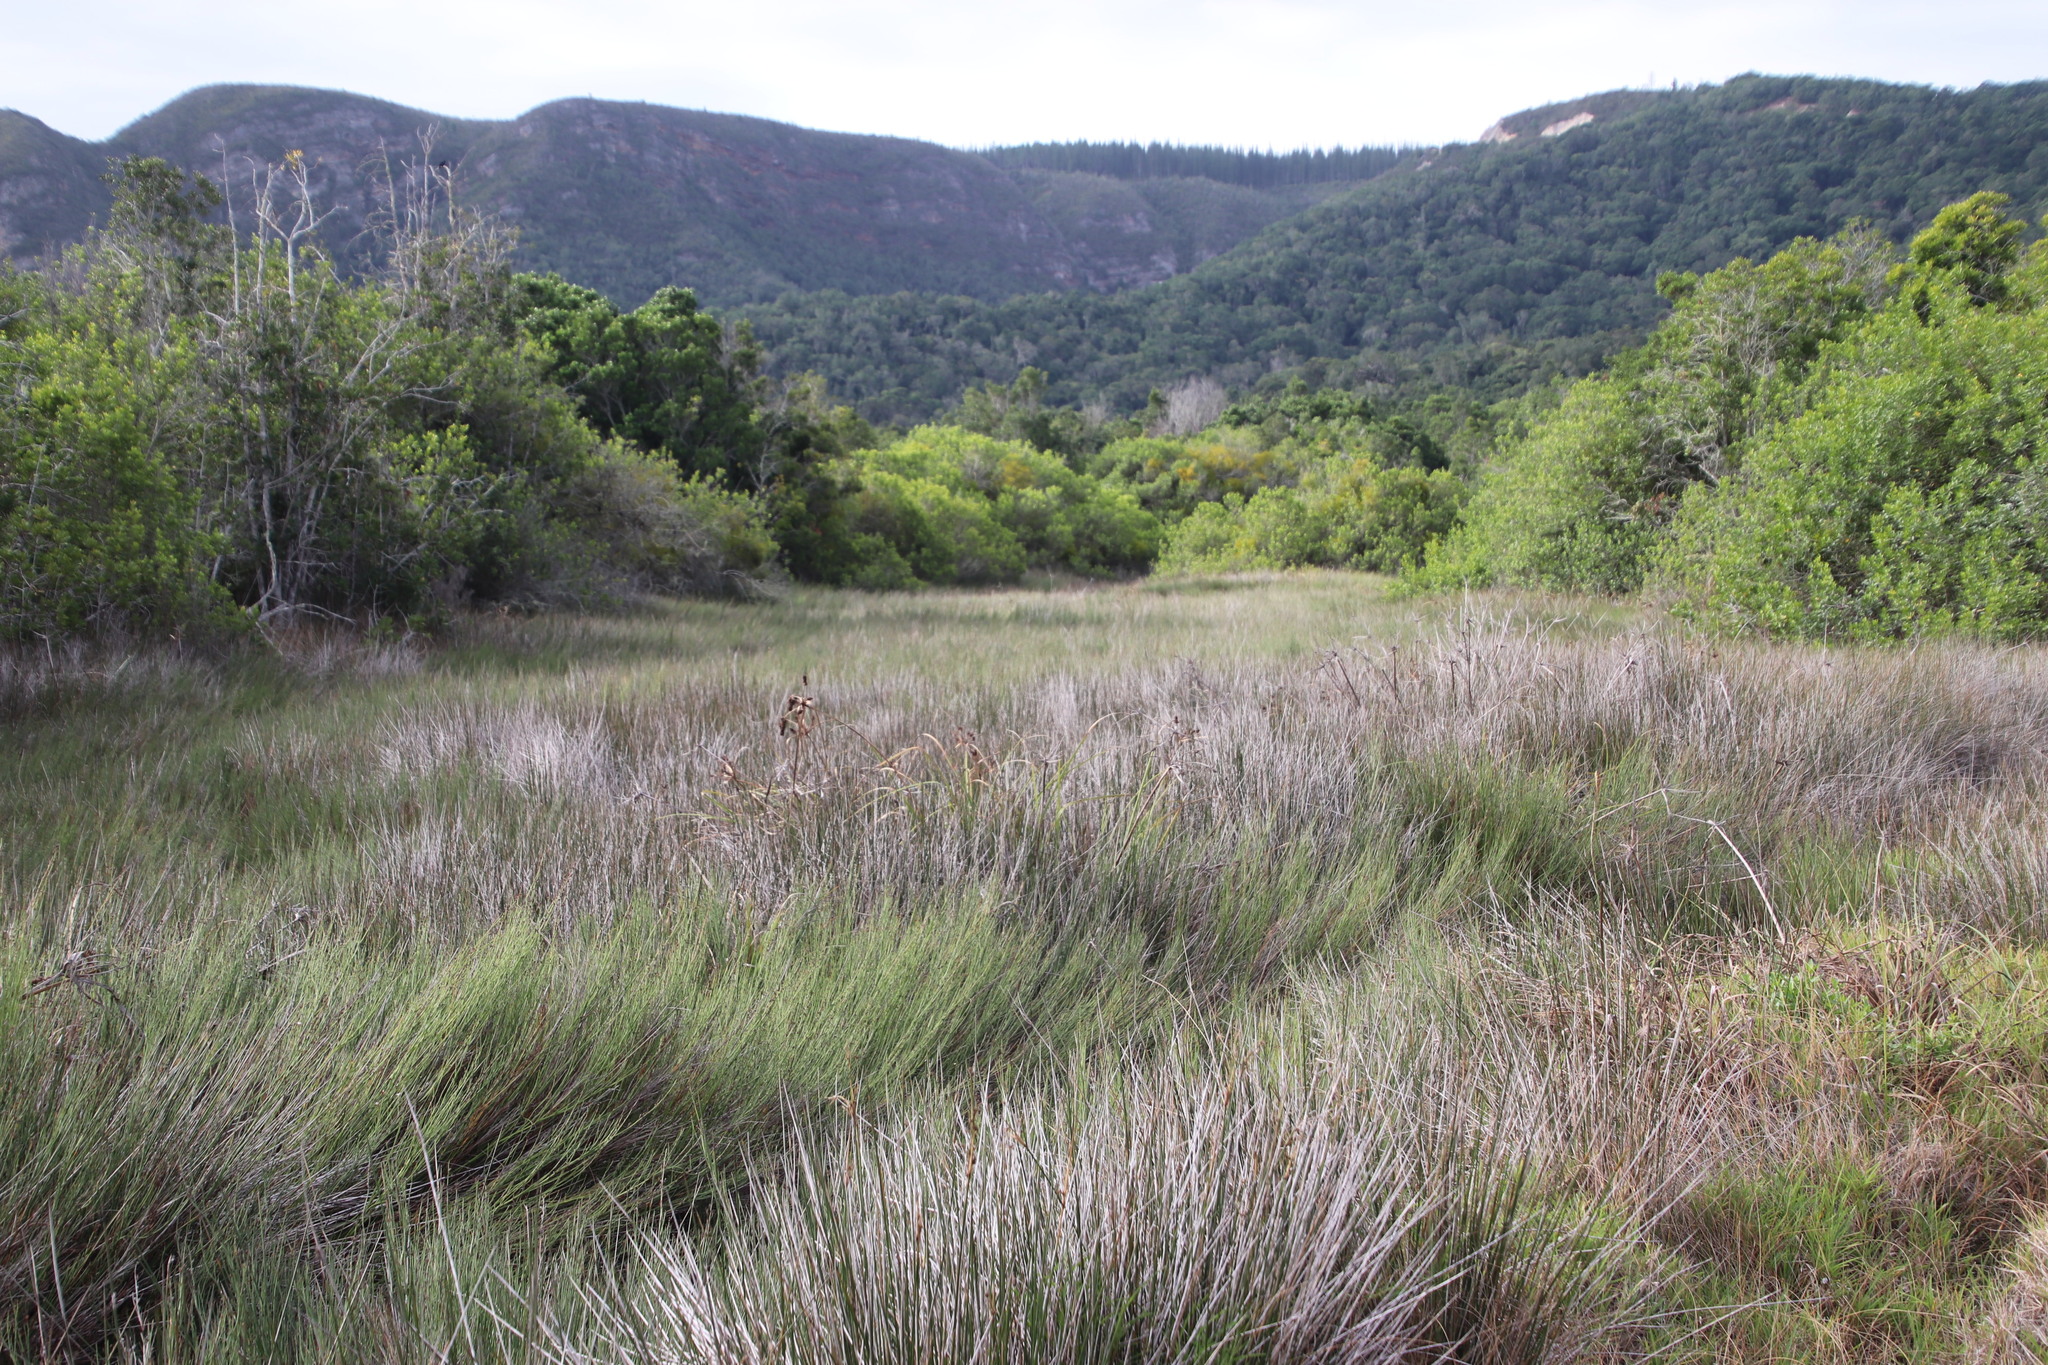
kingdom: Plantae
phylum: Tracheophyta
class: Magnoliopsida
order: Ericales
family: Primulaceae
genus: Samolus
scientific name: Samolus porosus
